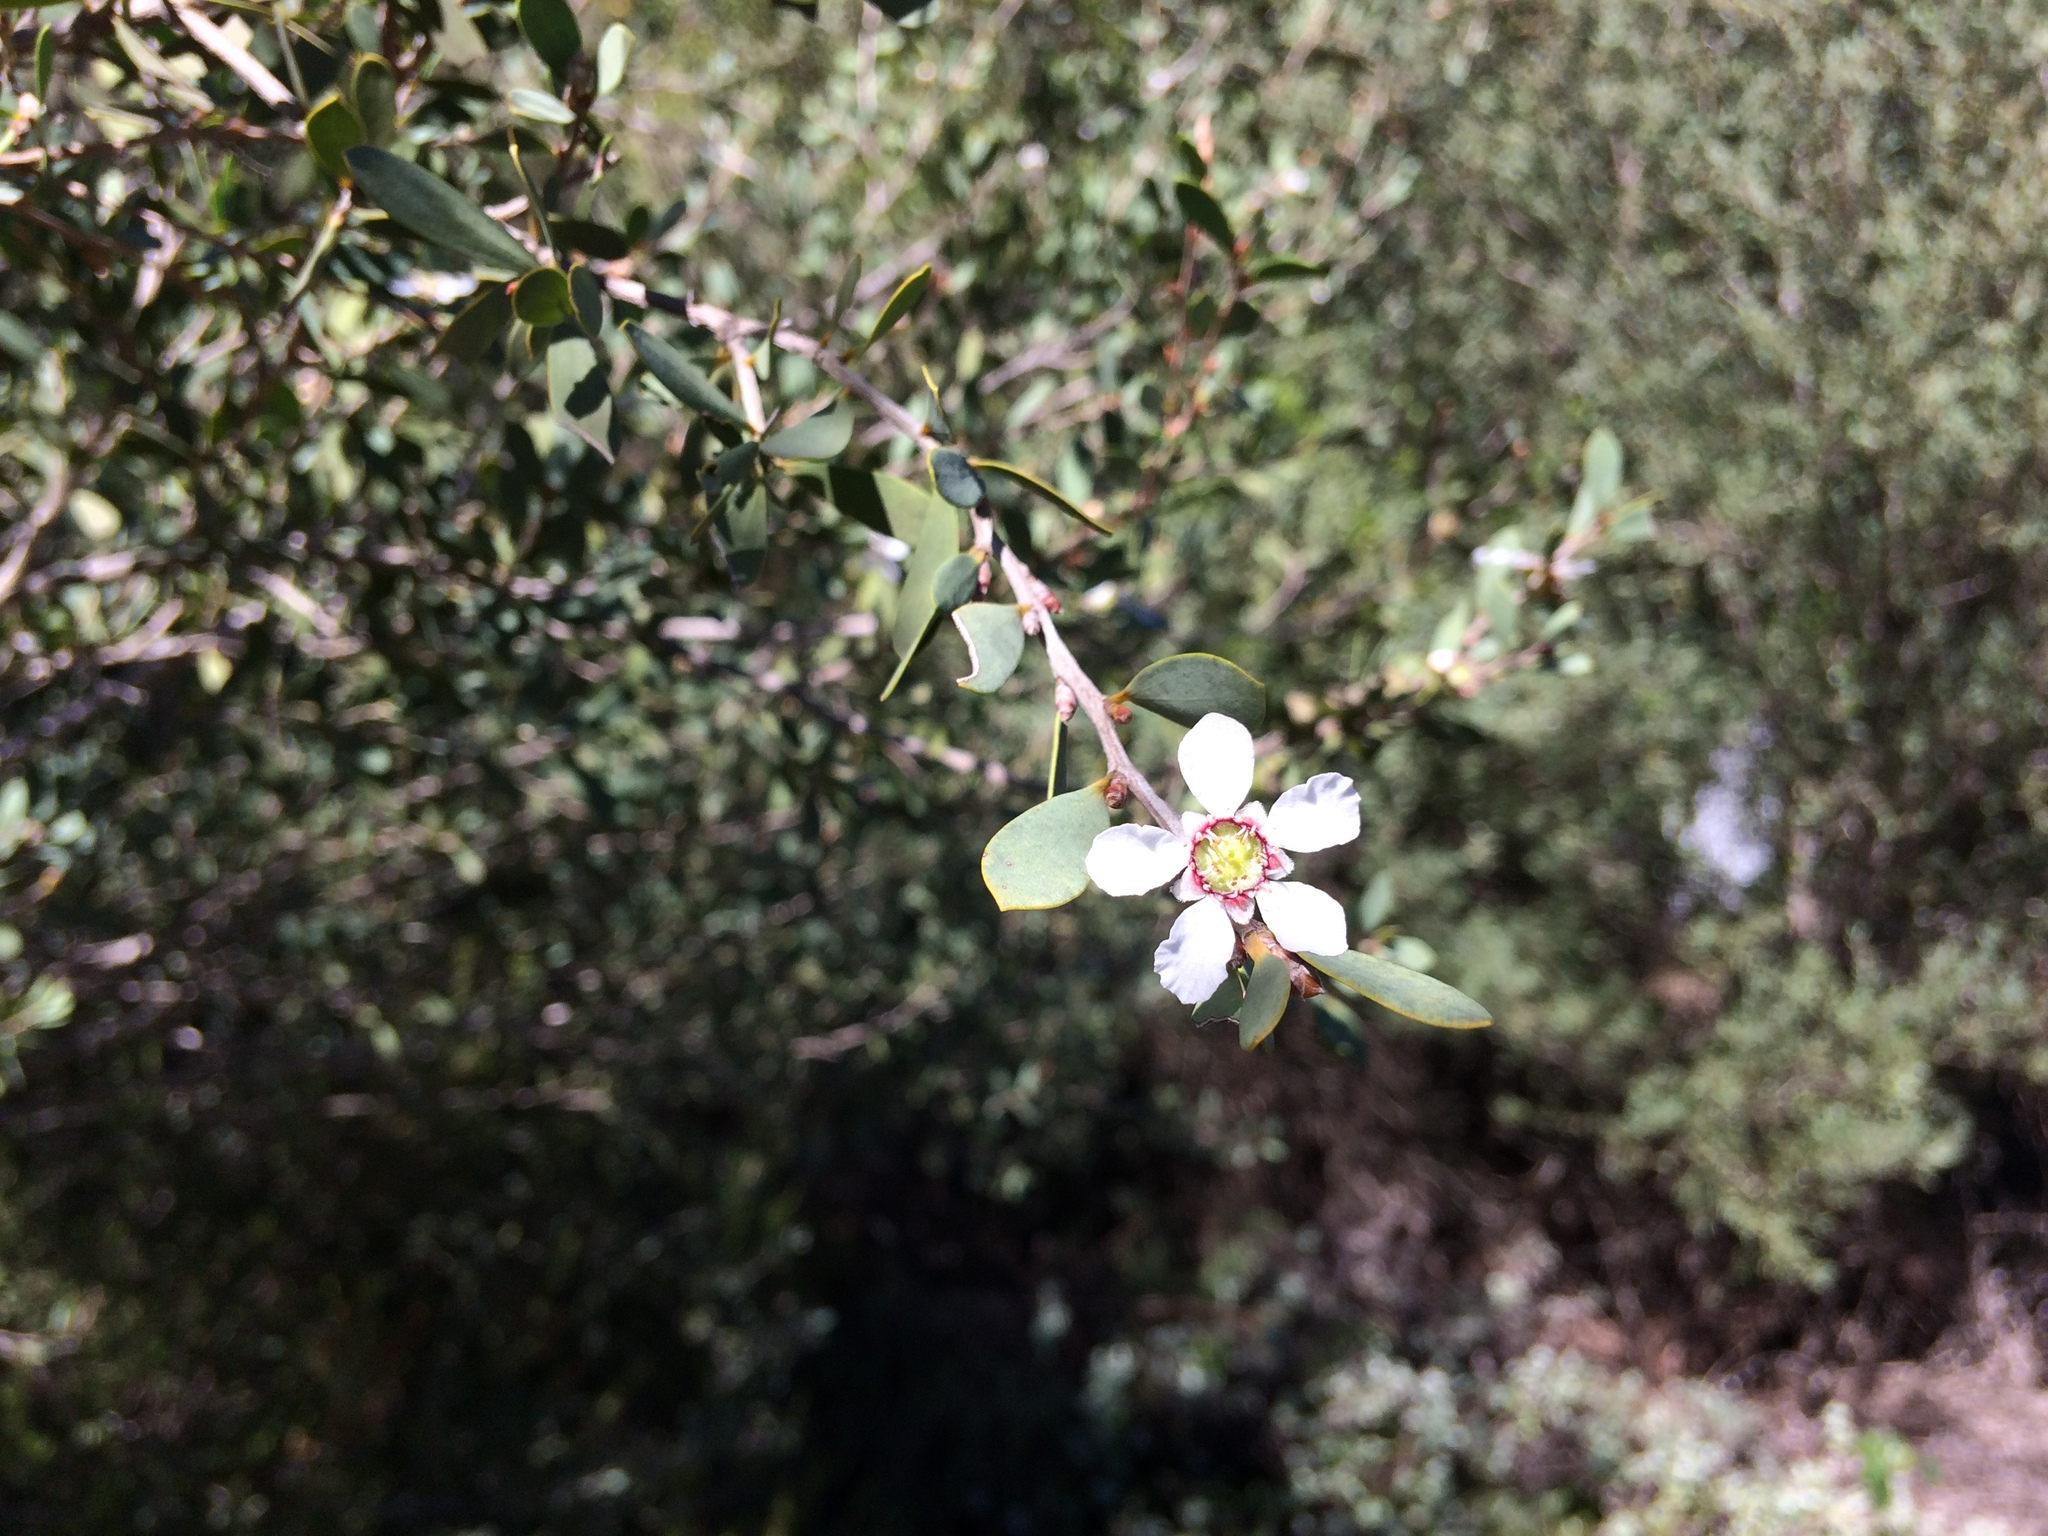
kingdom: Plantae
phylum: Tracheophyta
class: Magnoliopsida
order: Myrtales
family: Myrtaceae
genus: Leptospermum
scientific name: Leptospermum laevigatum
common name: Australian teatree
